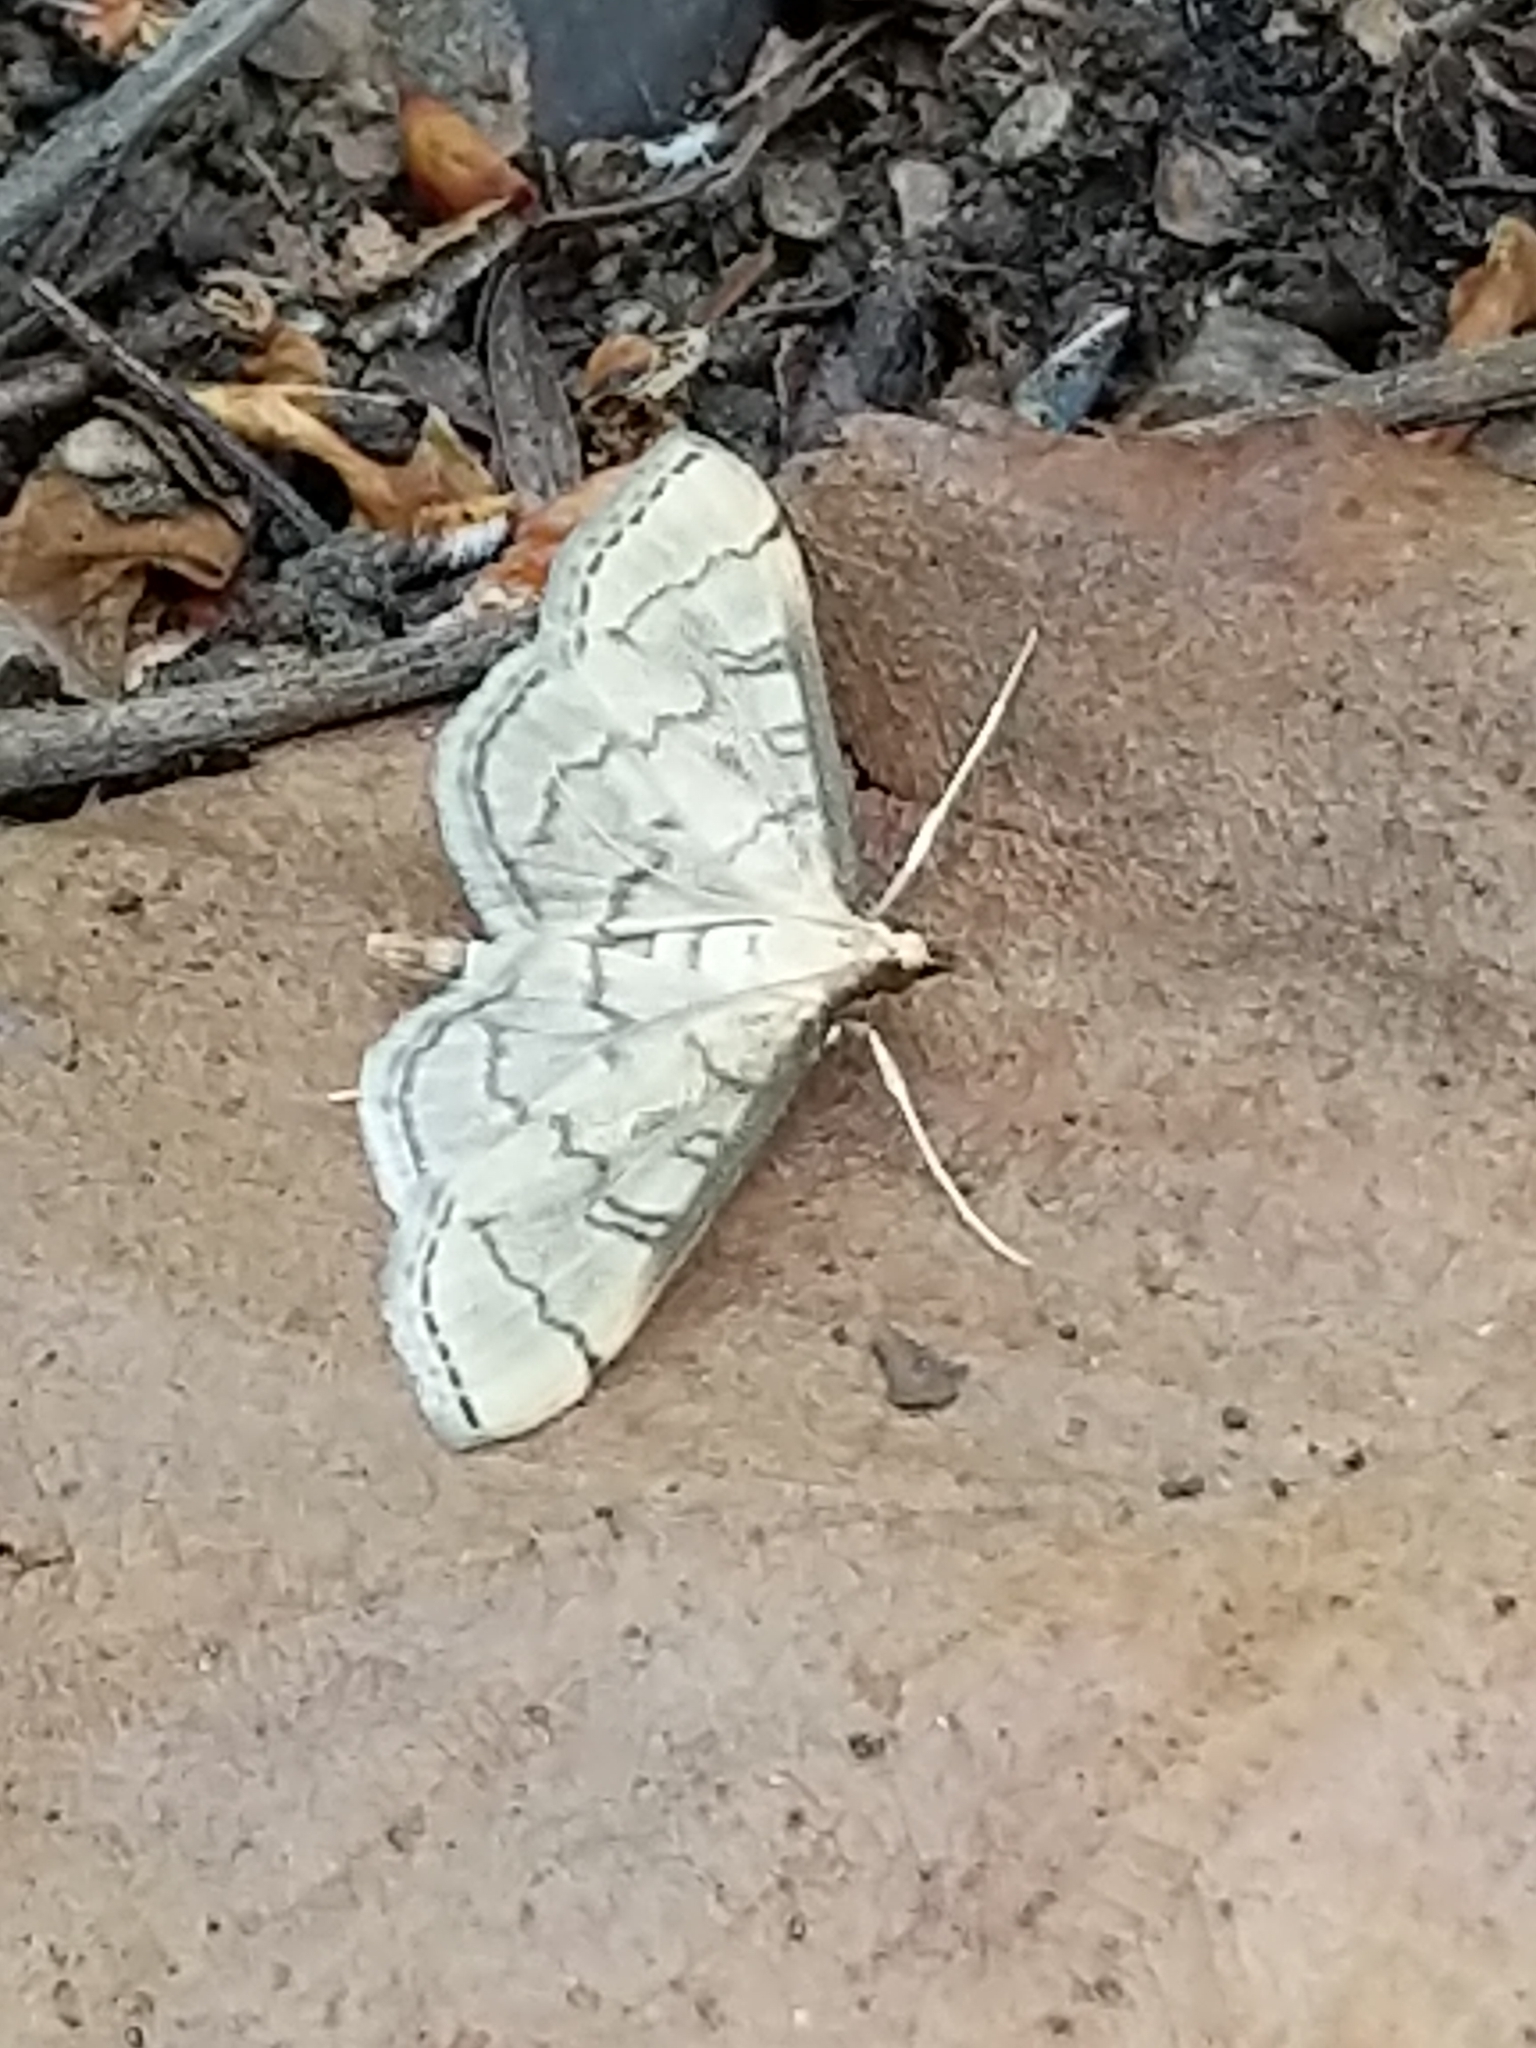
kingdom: Animalia
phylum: Arthropoda
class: Insecta
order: Lepidoptera
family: Crambidae
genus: Lamprosema
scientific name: Lamprosema Blepharomastix ranalis
